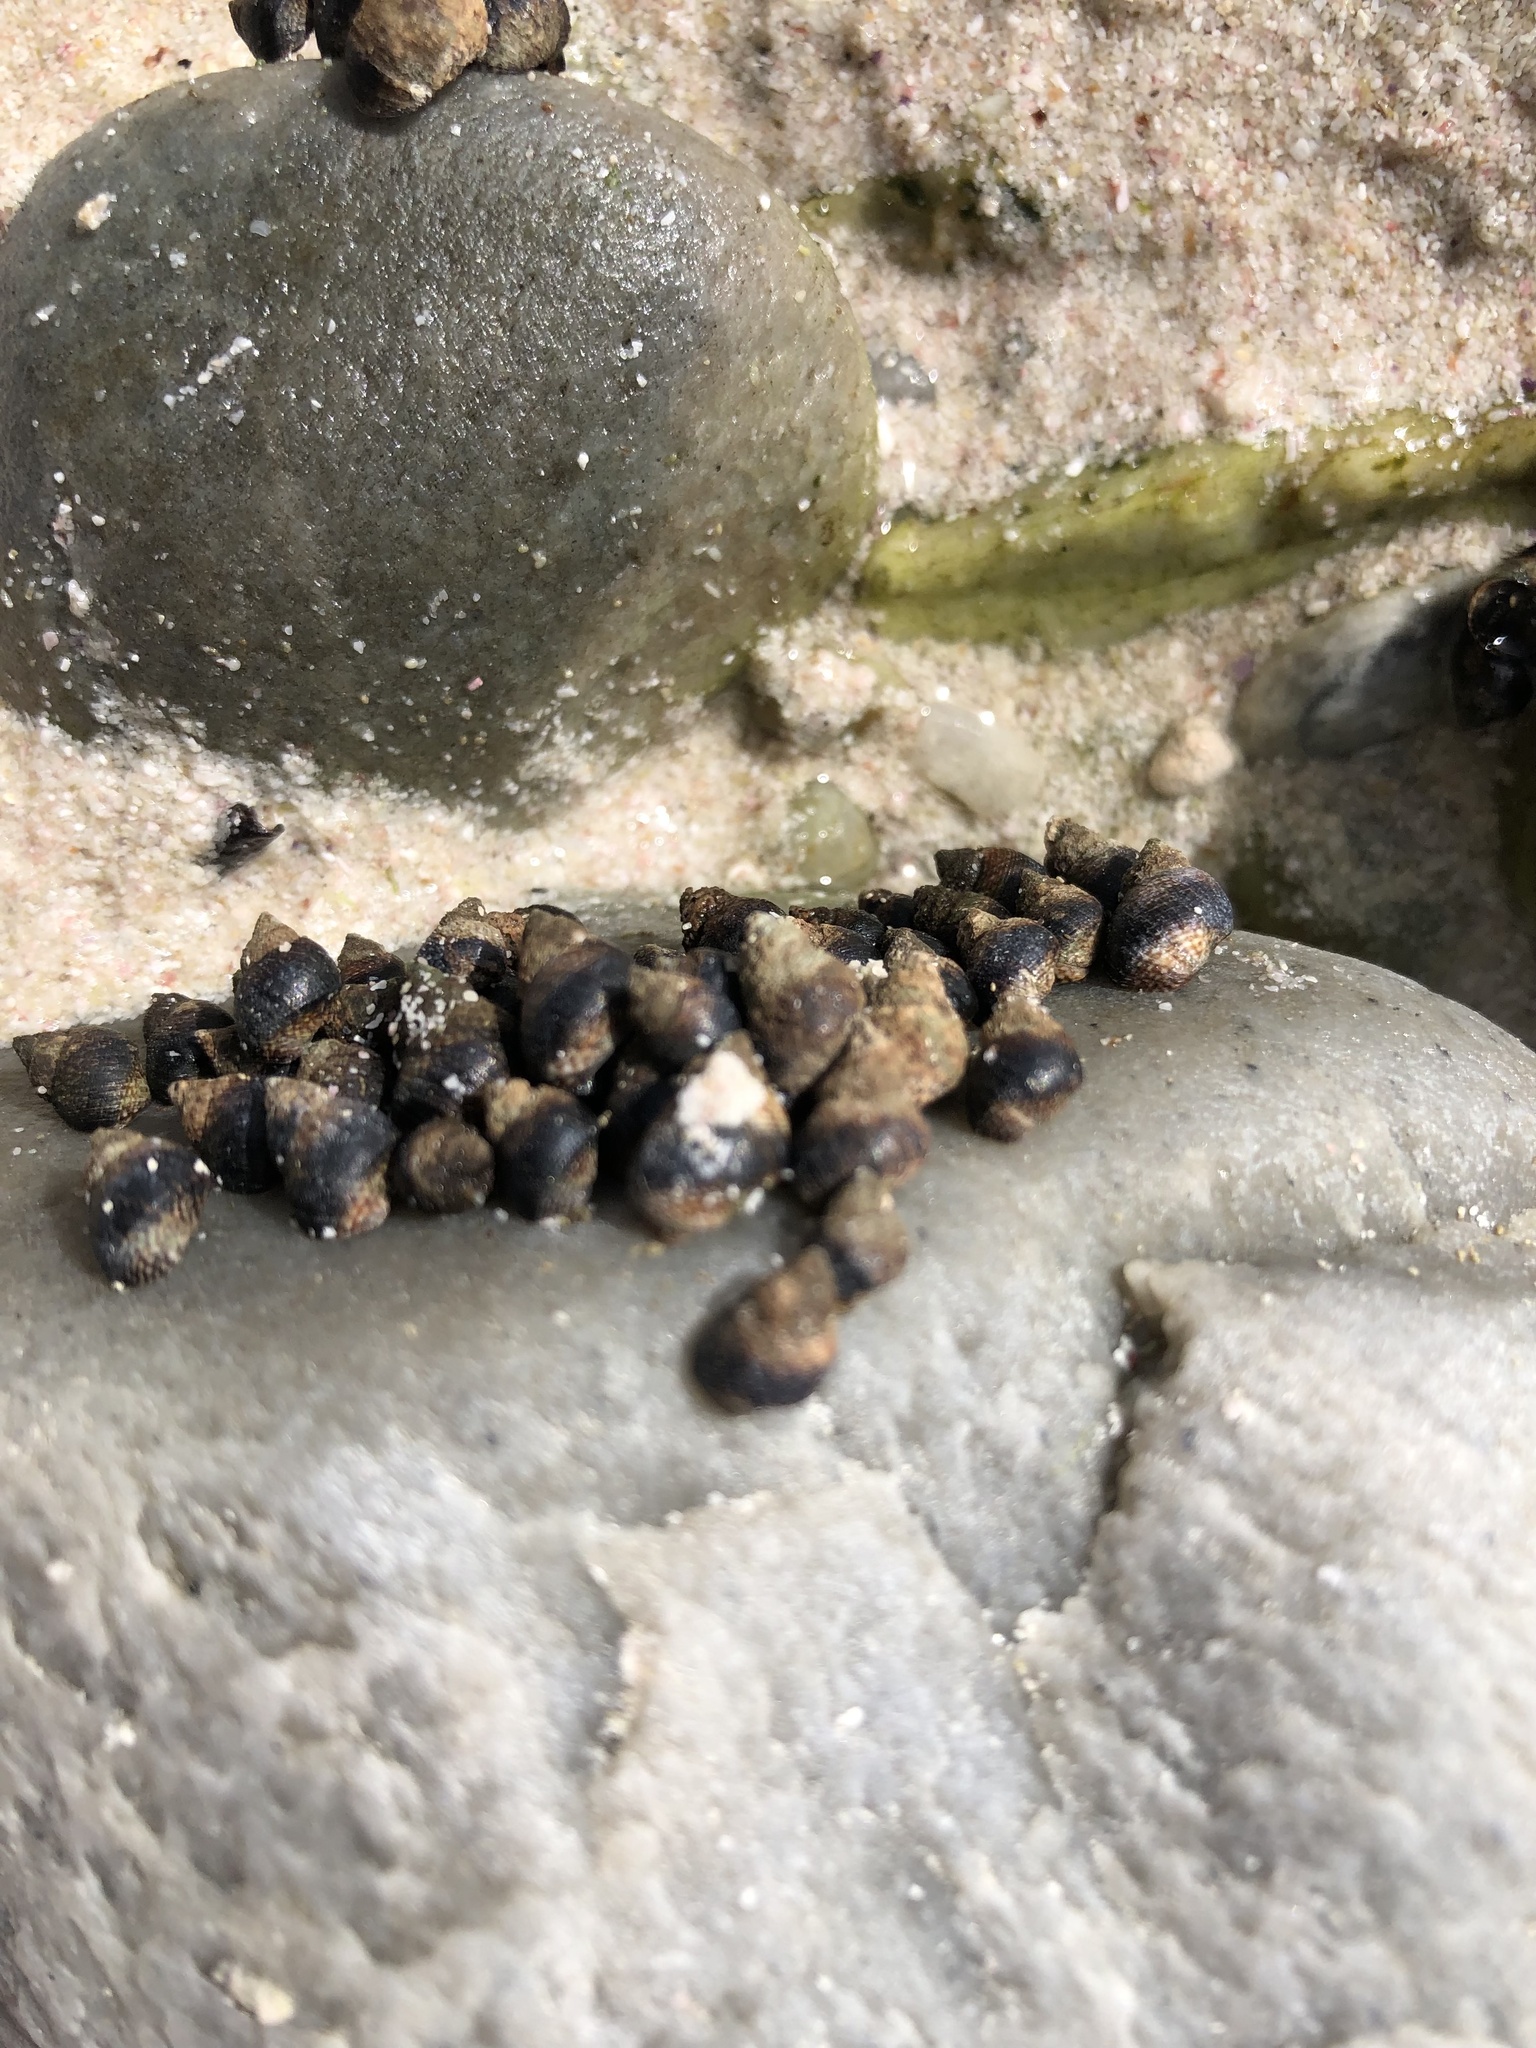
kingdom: Animalia
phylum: Mollusca
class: Gastropoda
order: Littorinimorpha
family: Littorinidae
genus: Afrolittorina
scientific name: Afrolittorina knysnaensis
